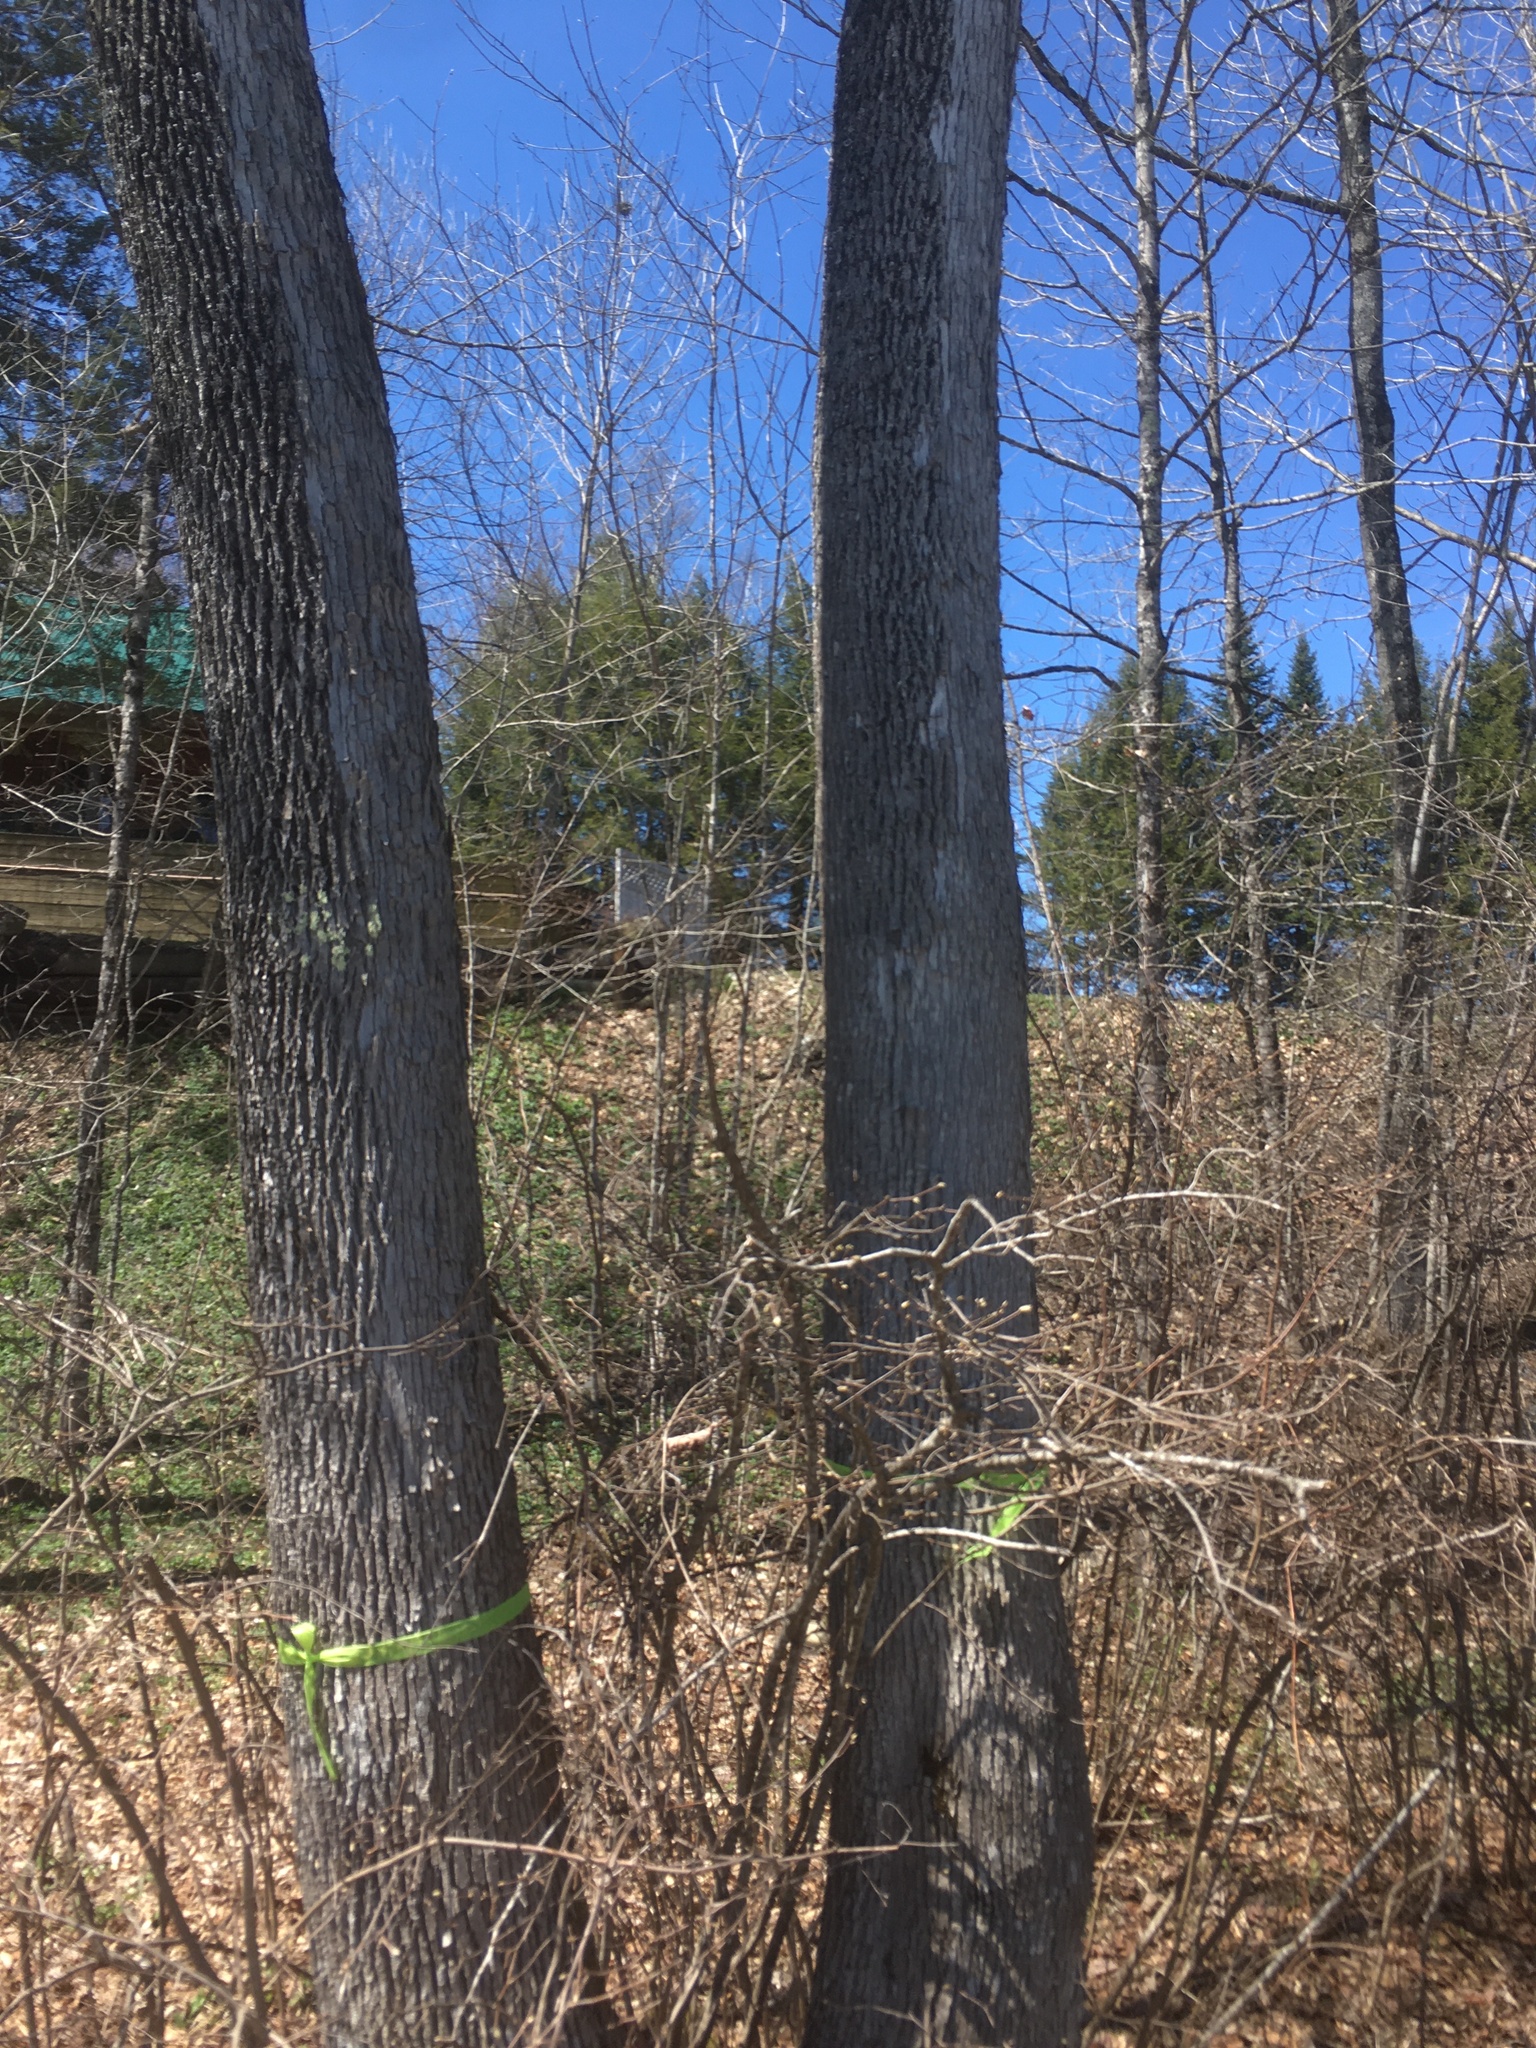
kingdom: Plantae
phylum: Tracheophyta
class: Magnoliopsida
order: Lamiales
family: Oleaceae
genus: Fraxinus
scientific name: Fraxinus americana
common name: White ash
